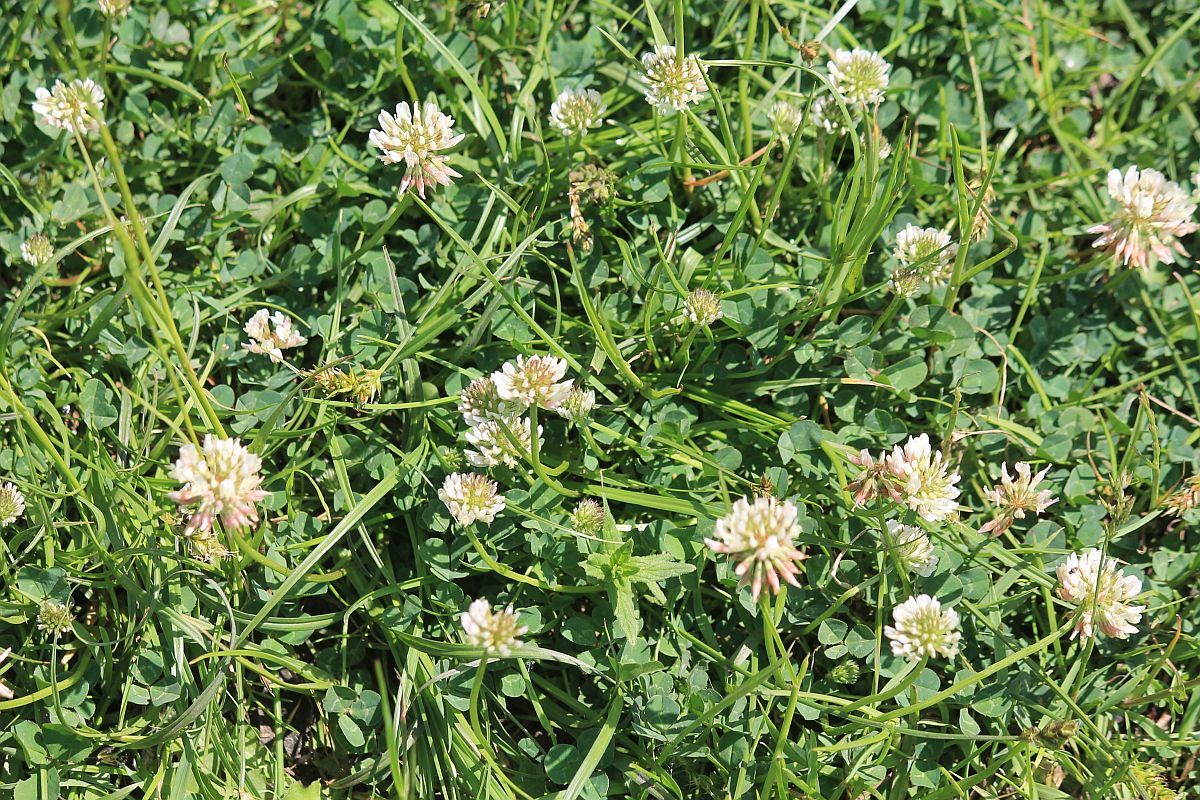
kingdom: Plantae
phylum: Tracheophyta
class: Magnoliopsida
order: Fabales
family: Fabaceae
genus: Trifolium
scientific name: Trifolium repens
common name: White clover
